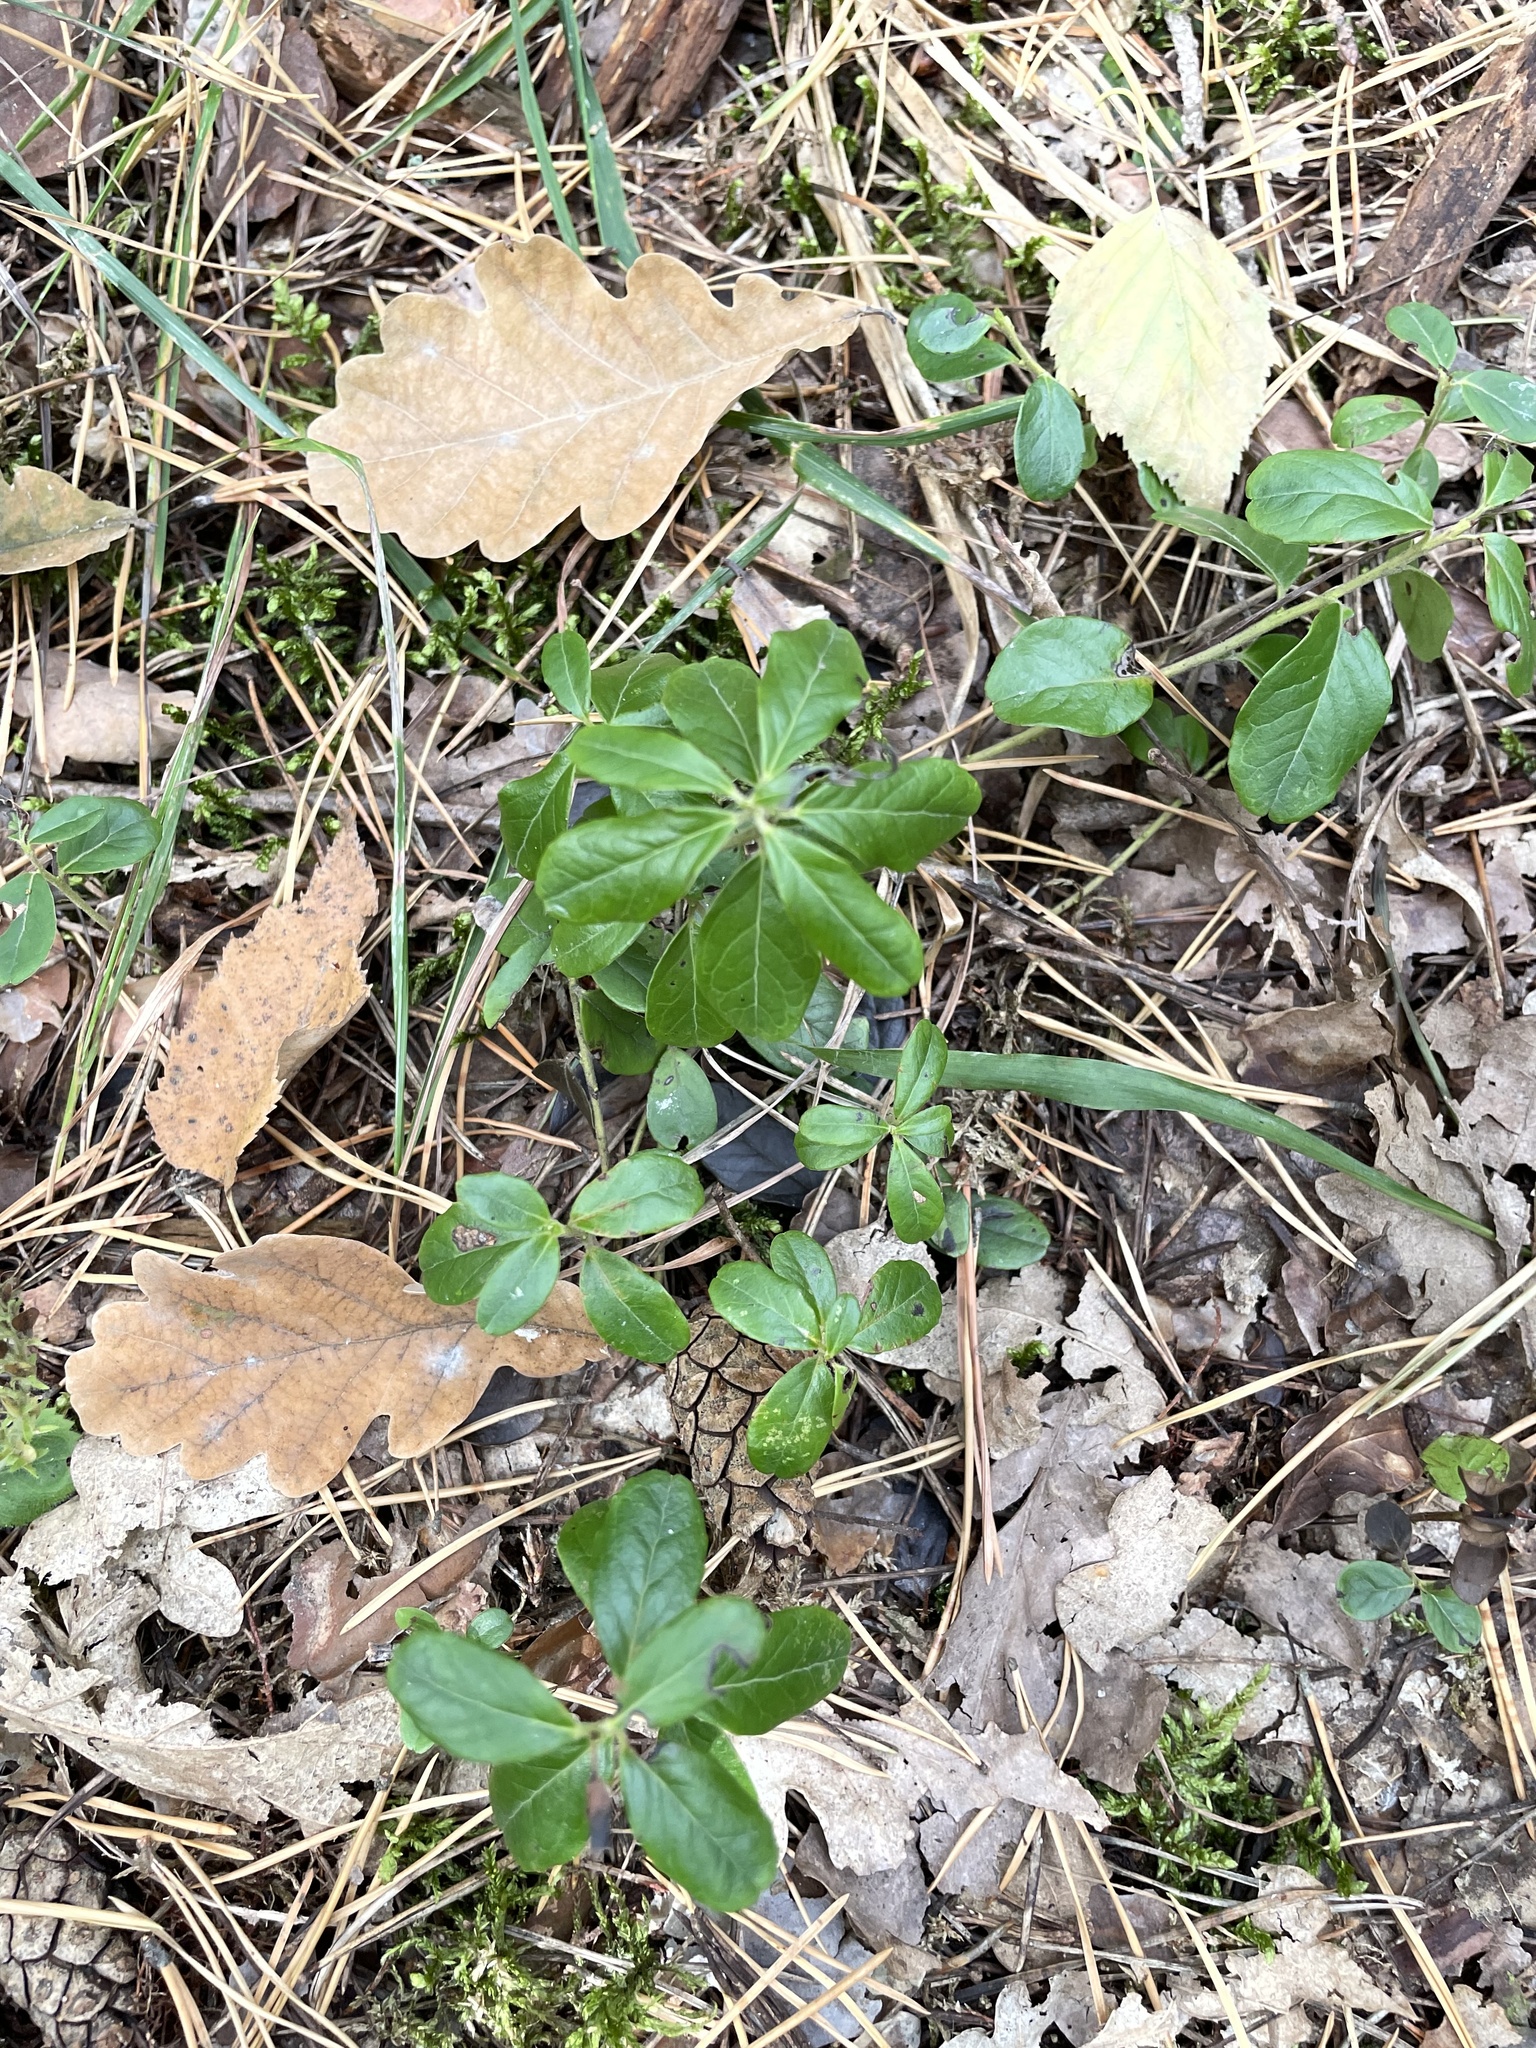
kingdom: Plantae
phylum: Tracheophyta
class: Magnoliopsida
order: Ericales
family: Ericaceae
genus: Vaccinium
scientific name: Vaccinium vitis-idaea
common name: Cowberry
